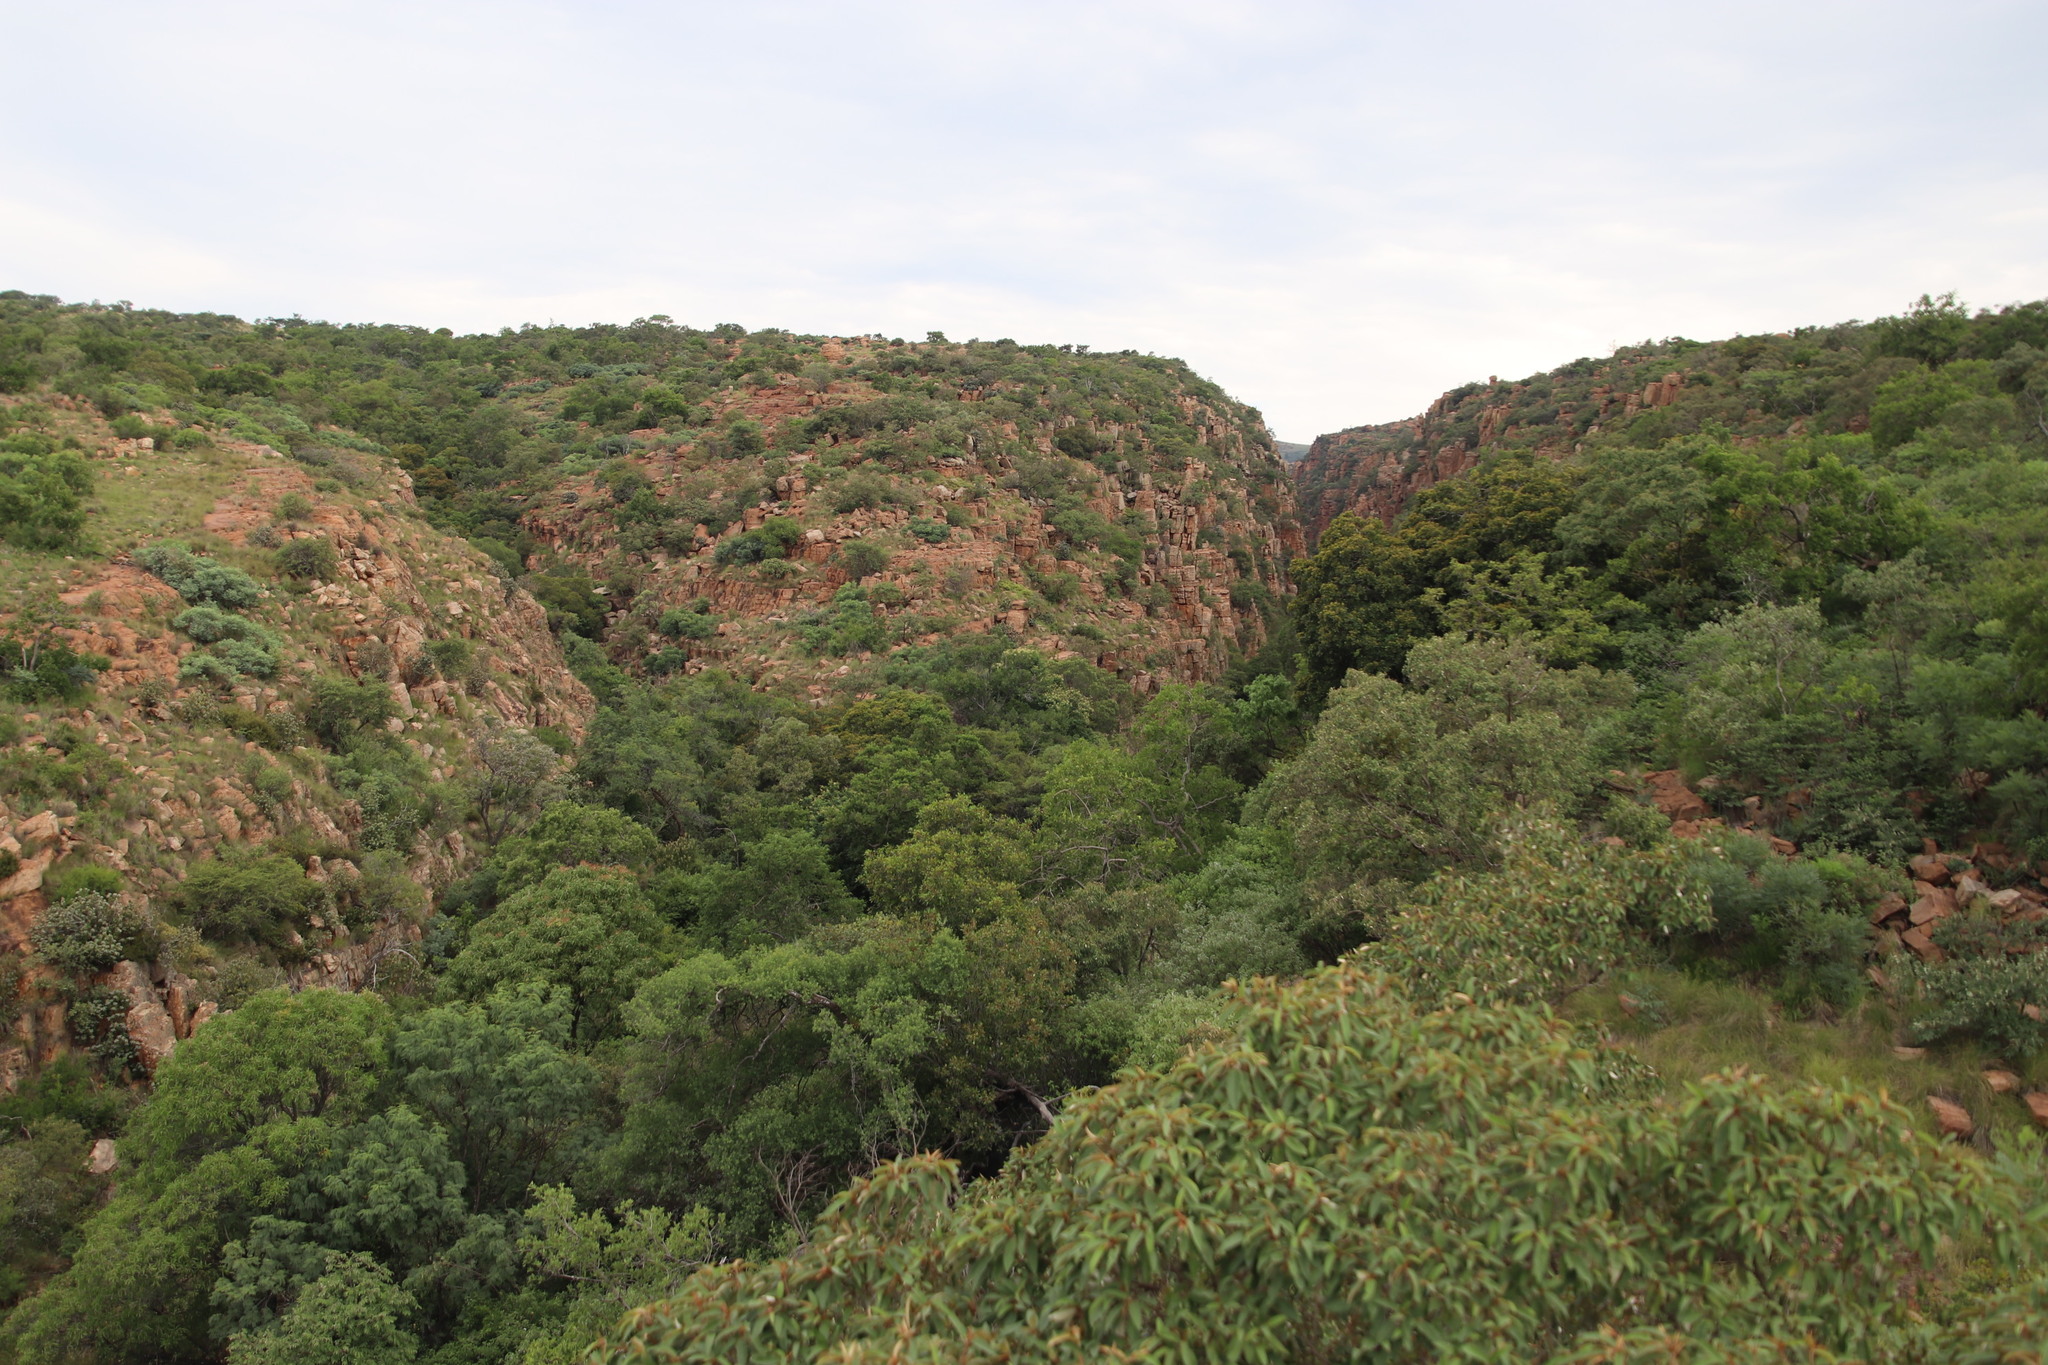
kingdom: Plantae
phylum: Tracheophyta
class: Magnoliopsida
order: Ericales
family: Sapotaceae
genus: Mimusops
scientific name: Mimusops zeyheri
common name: Transvaal red milkwood
